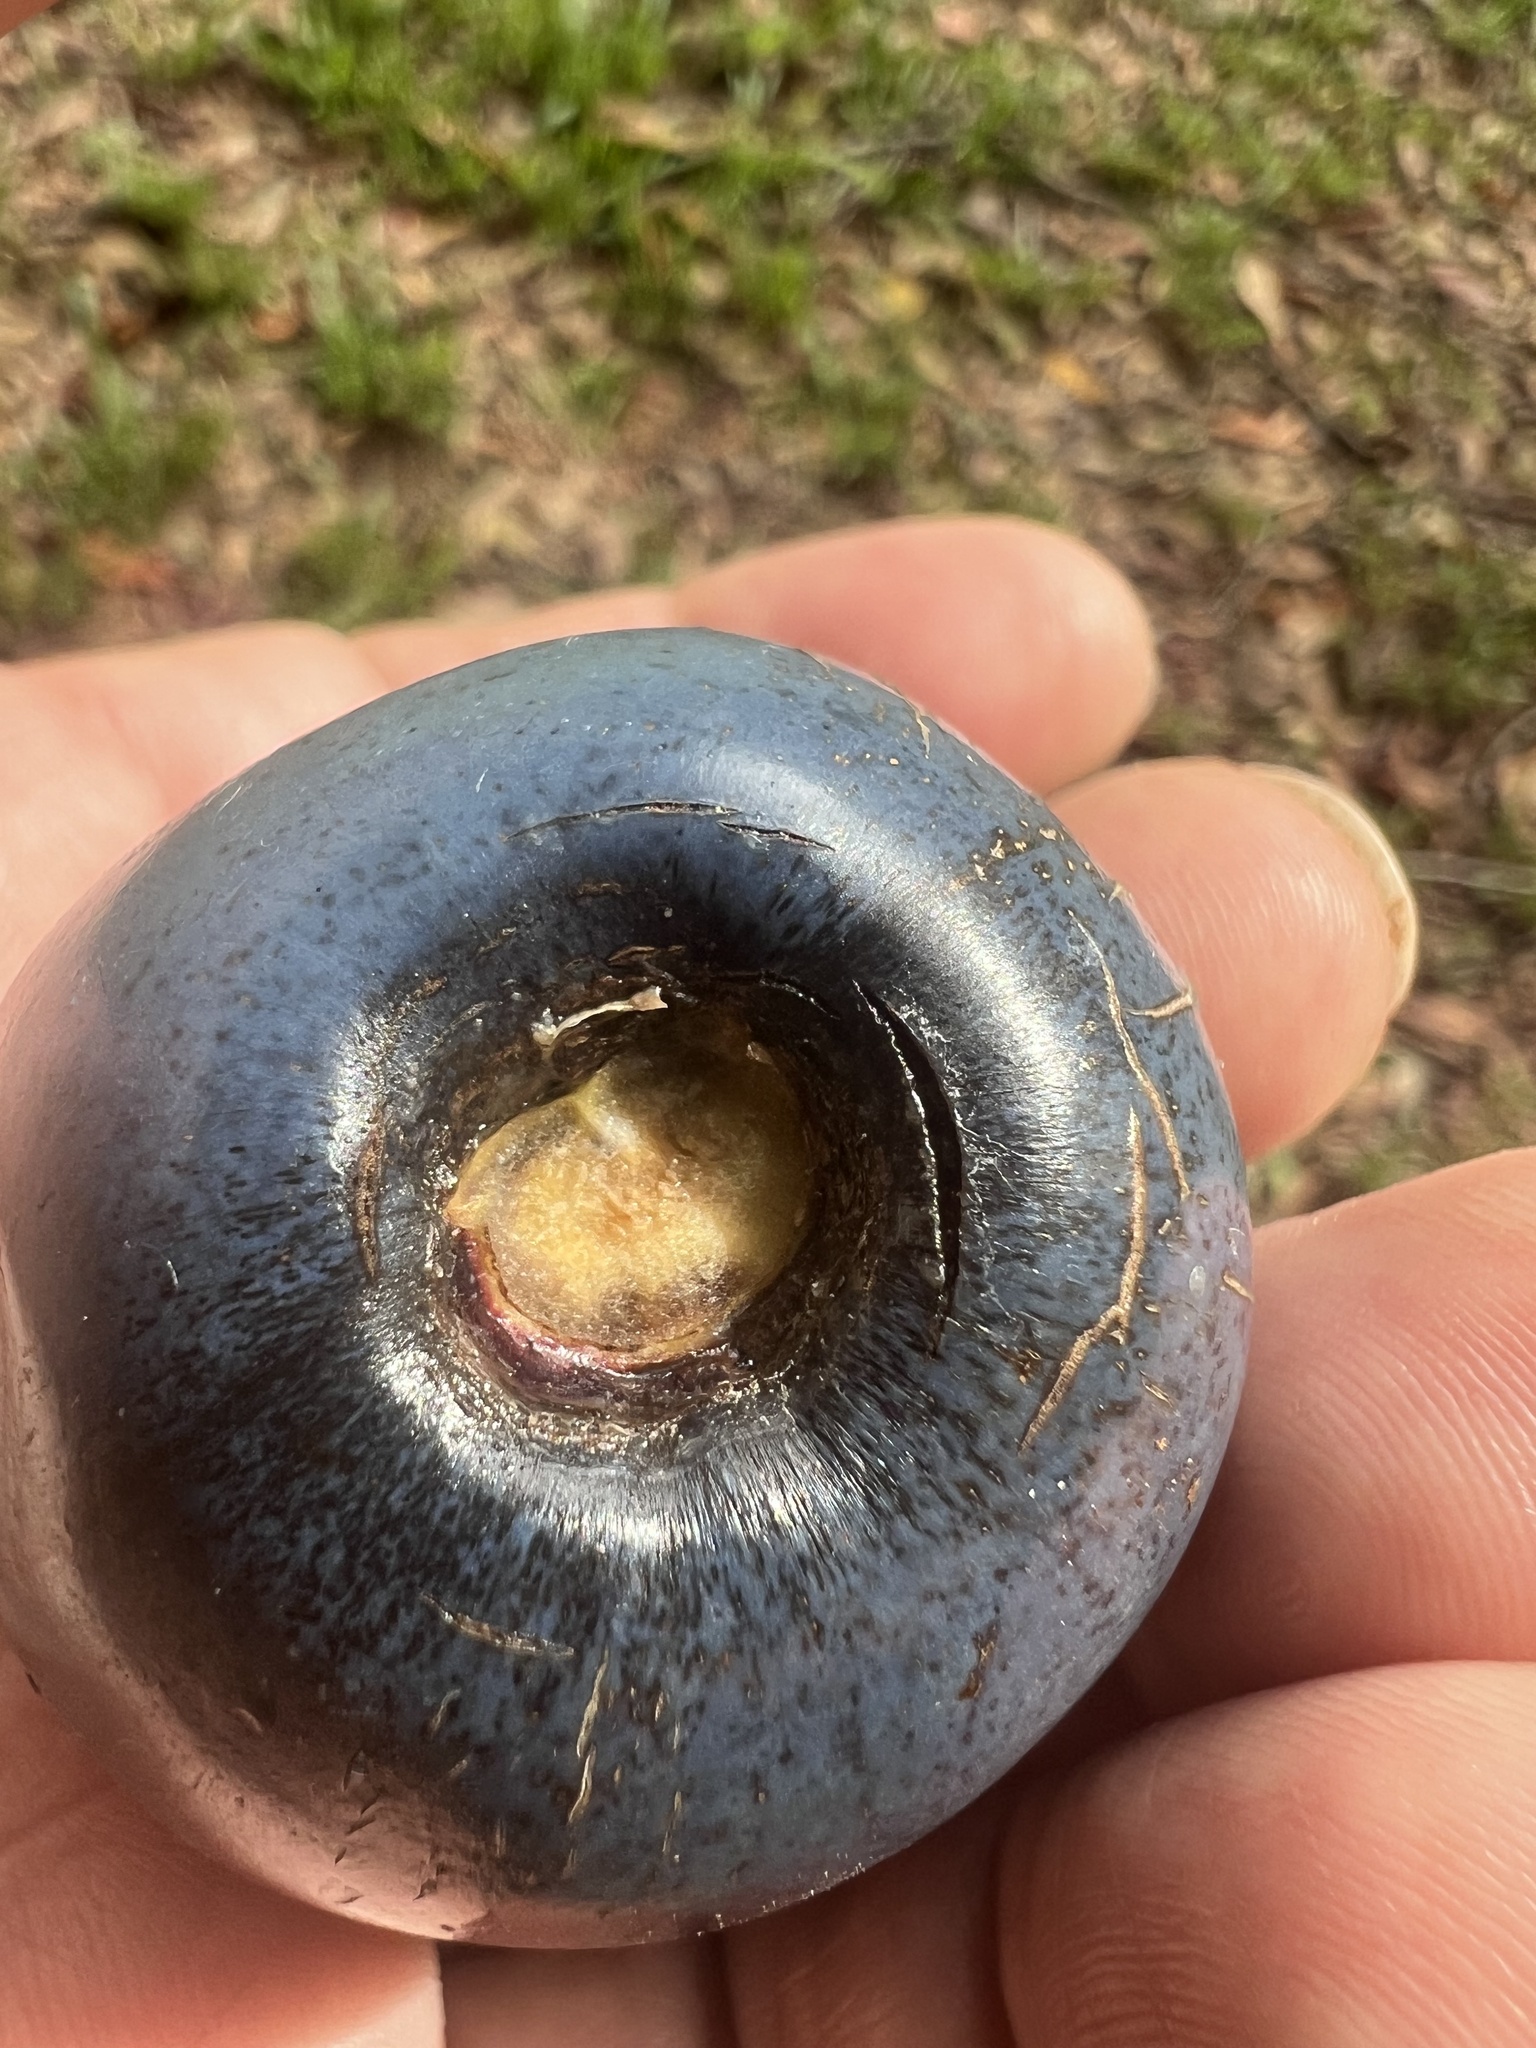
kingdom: Plantae
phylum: Tracheophyta
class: Magnoliopsida
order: Gentianales
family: Apocynaceae
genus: Cerbera
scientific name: Cerbera floribunda
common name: Cassowary plumtree
